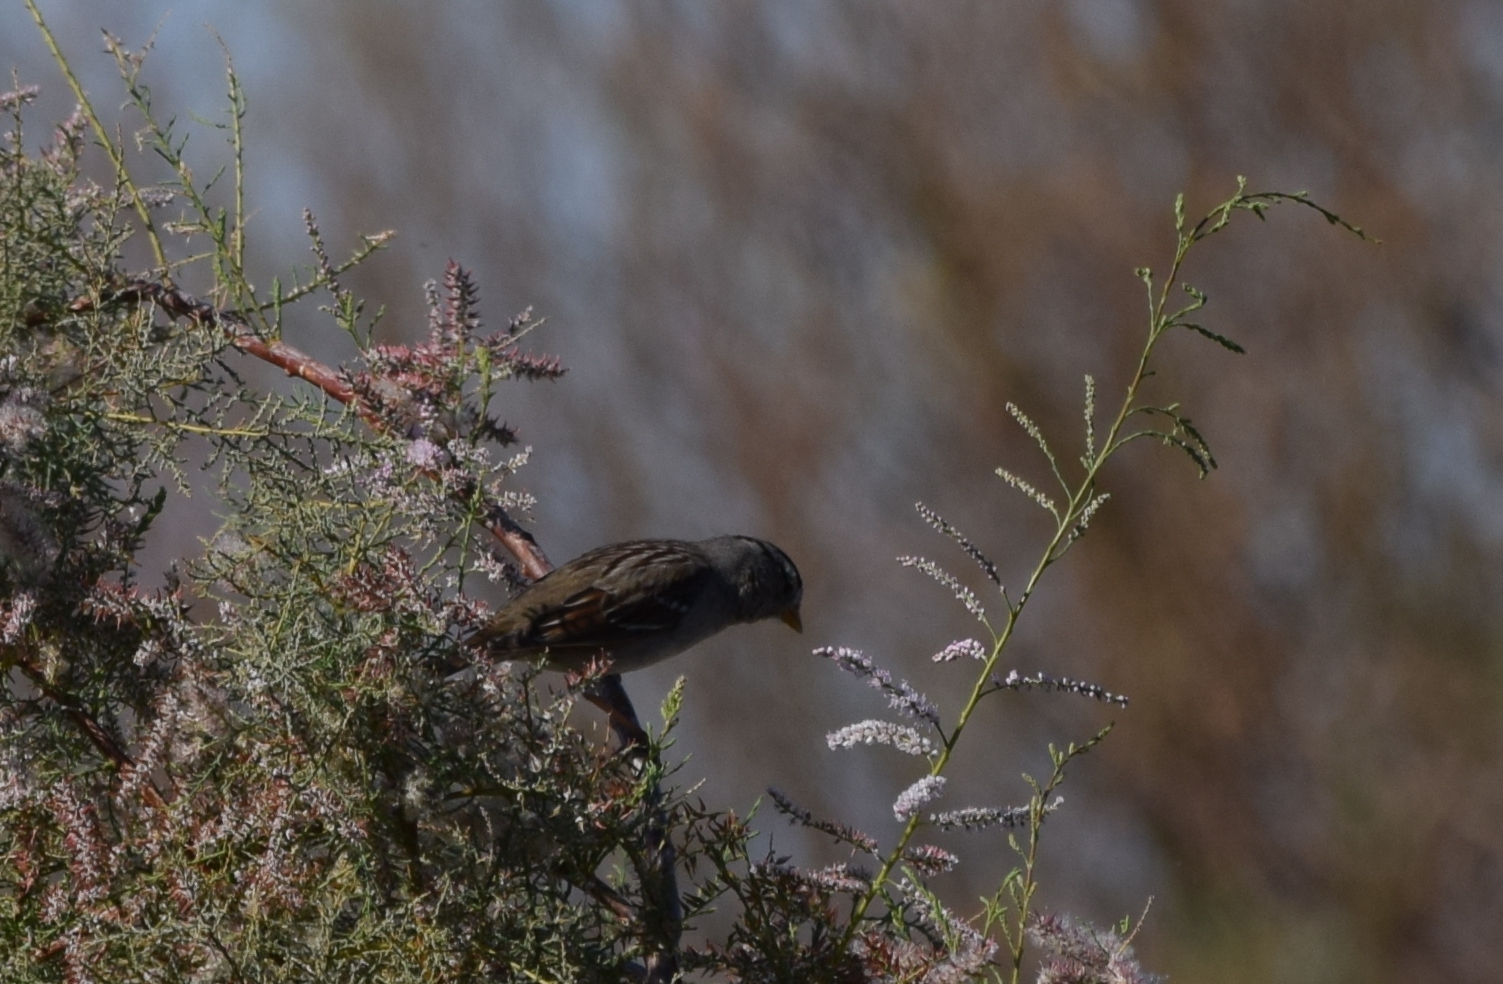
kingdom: Animalia
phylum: Chordata
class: Aves
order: Passeriformes
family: Passerellidae
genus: Zonotrichia
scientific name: Zonotrichia leucophrys
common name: White-crowned sparrow
